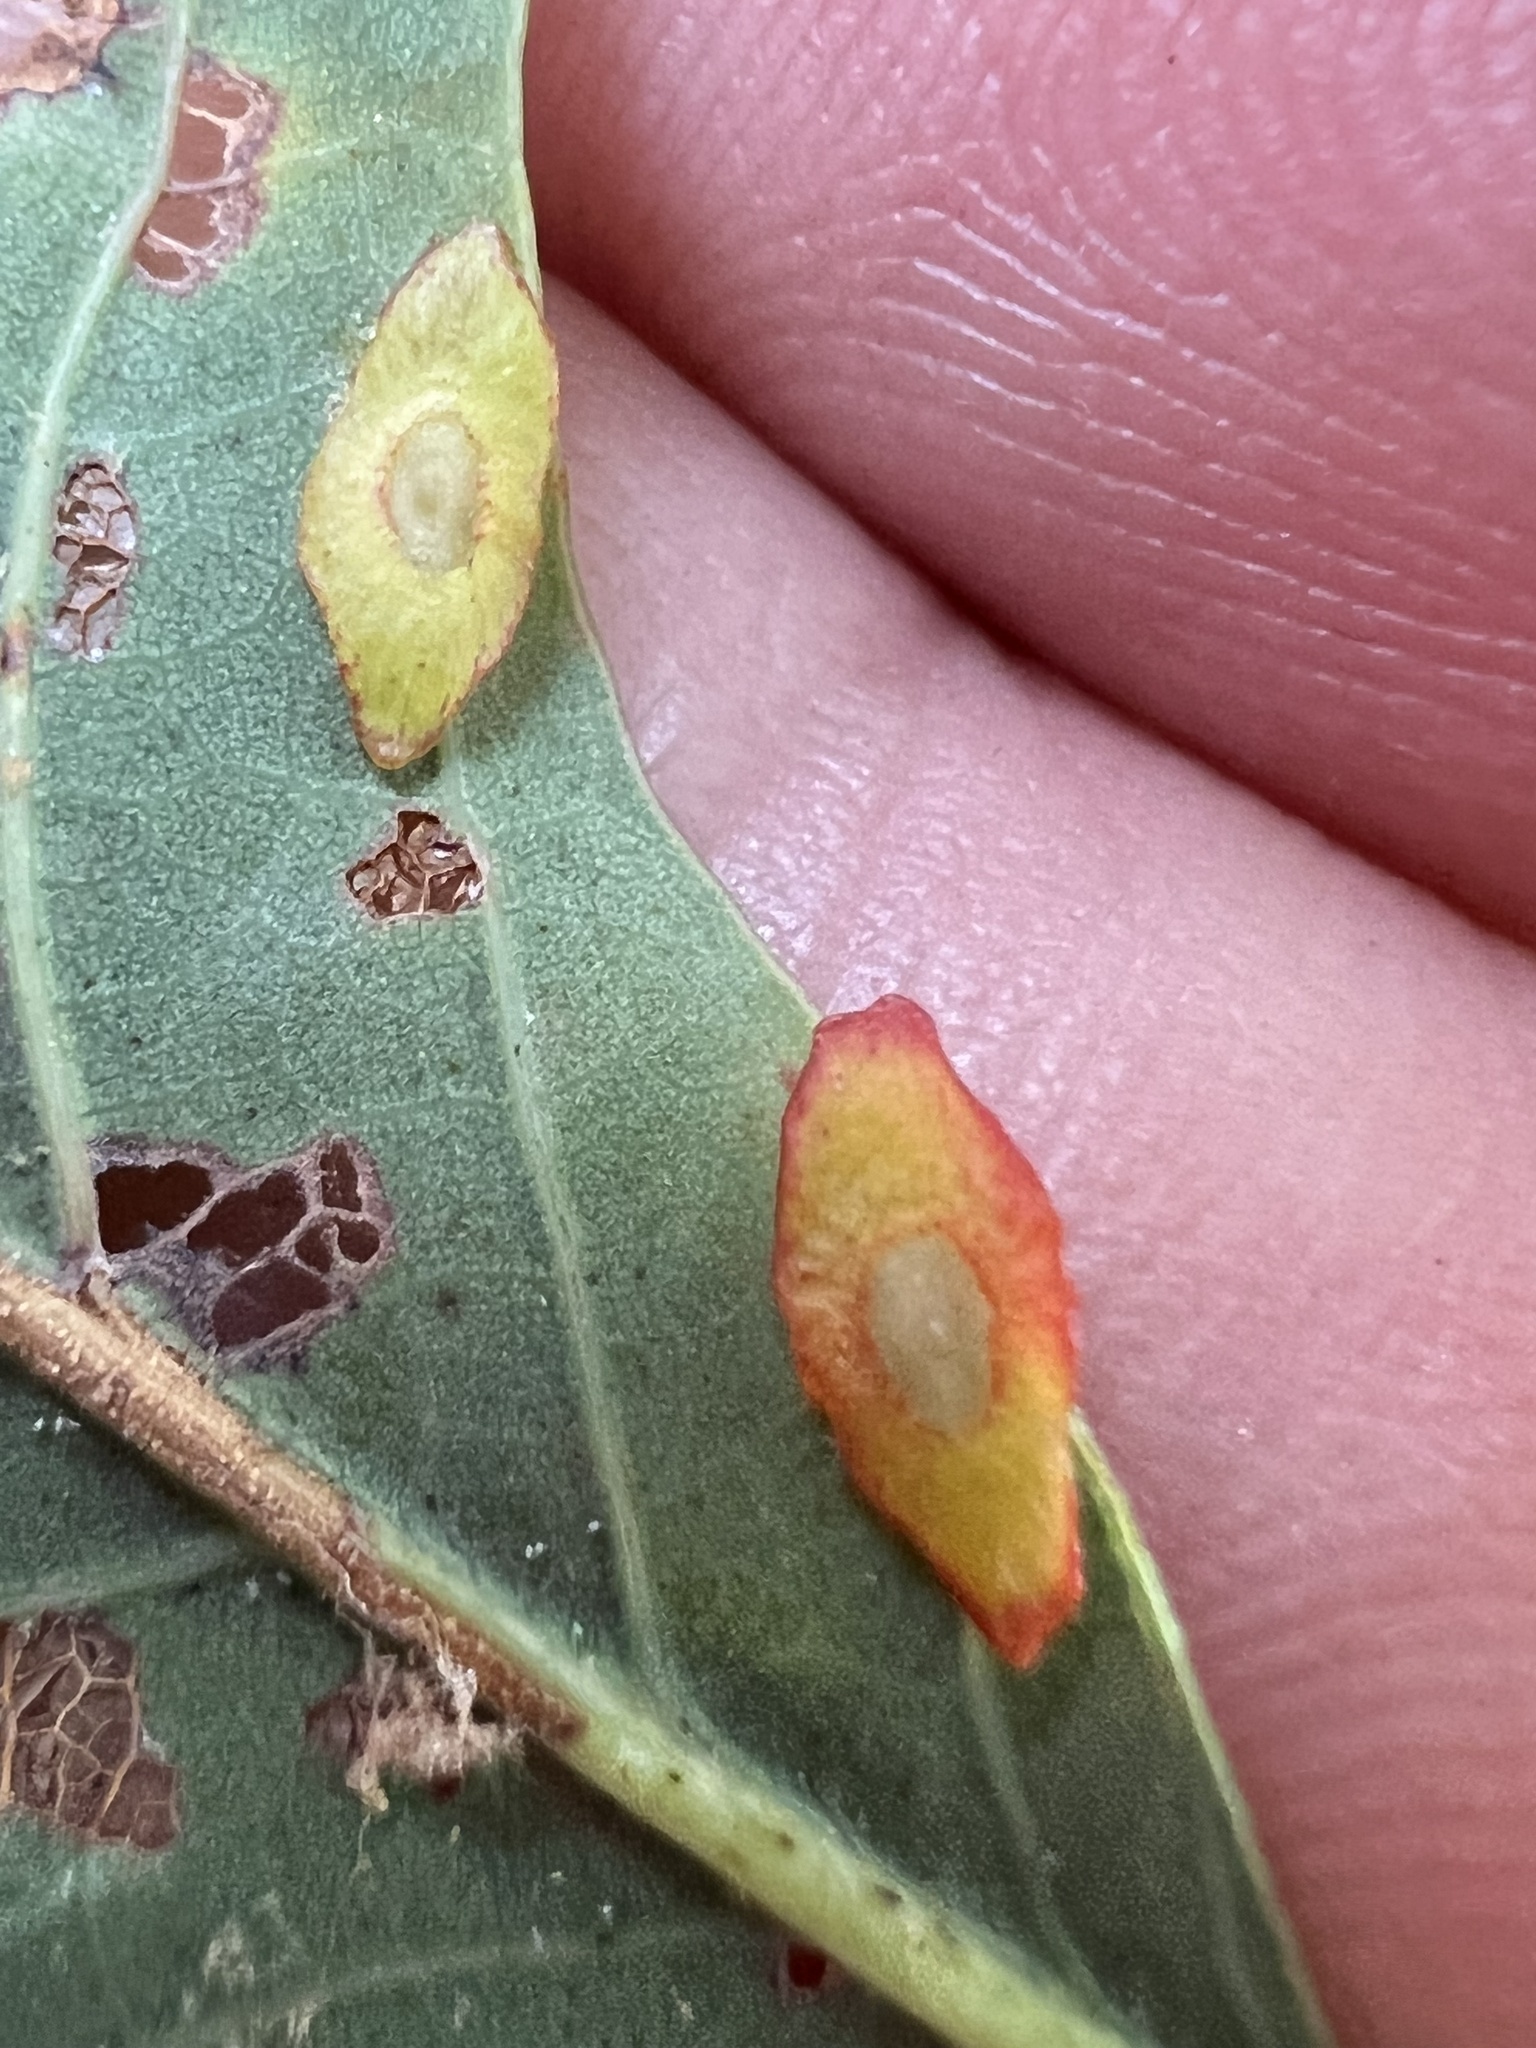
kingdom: Animalia
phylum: Arthropoda
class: Insecta
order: Hymenoptera
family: Cynipidae
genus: Phylloteras
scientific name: Phylloteras
